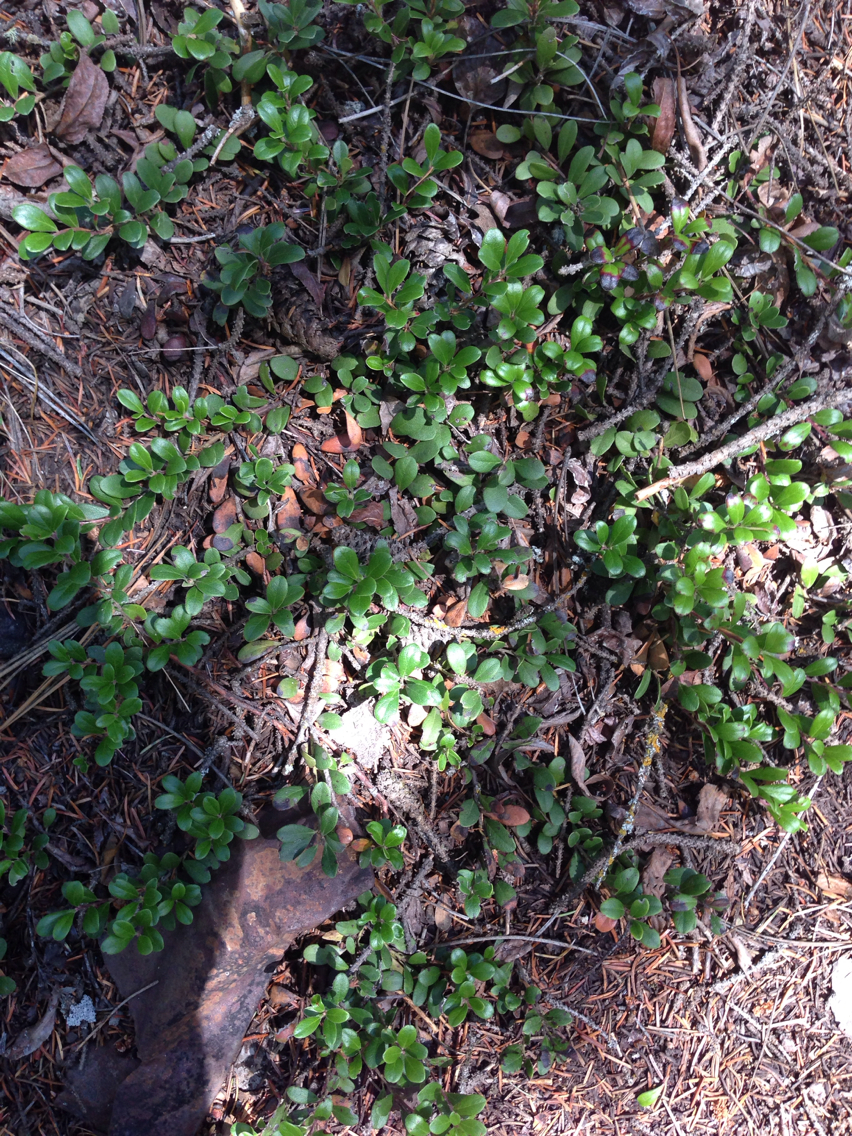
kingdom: Plantae
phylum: Tracheophyta
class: Magnoliopsida
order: Ericales
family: Ericaceae
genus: Arctostaphylos
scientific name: Arctostaphylos uva-ursi
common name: Bearberry
